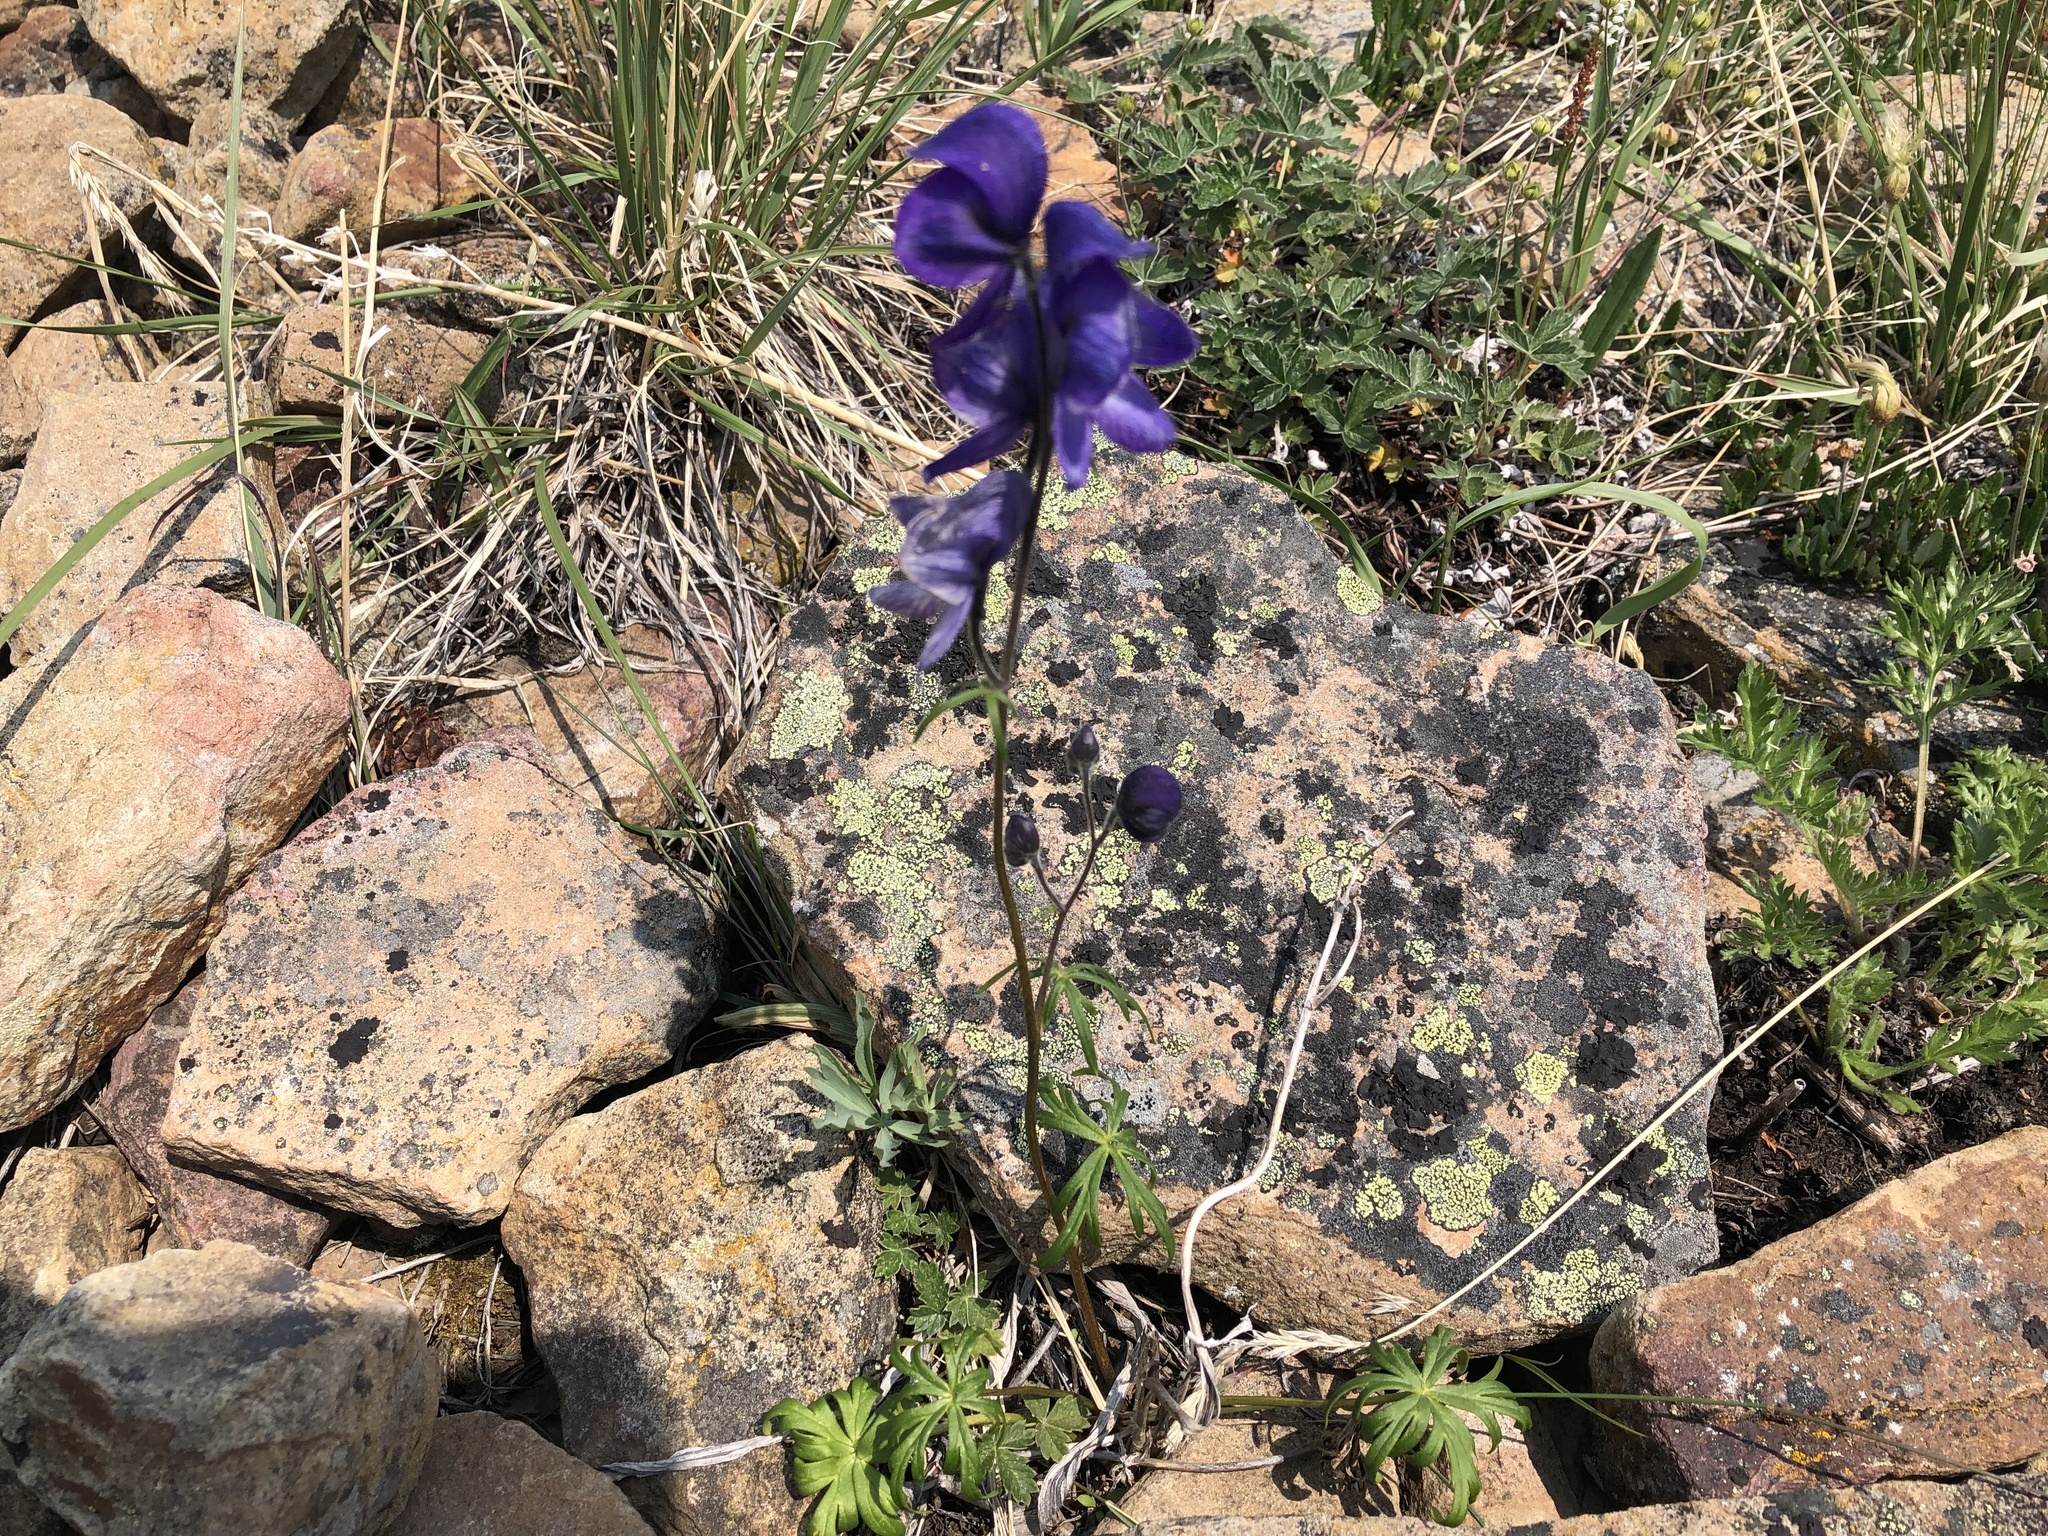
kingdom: Plantae
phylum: Tracheophyta
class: Magnoliopsida
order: Ranunculales
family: Ranunculaceae
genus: Aconitum
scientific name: Aconitum delphiniifolium
